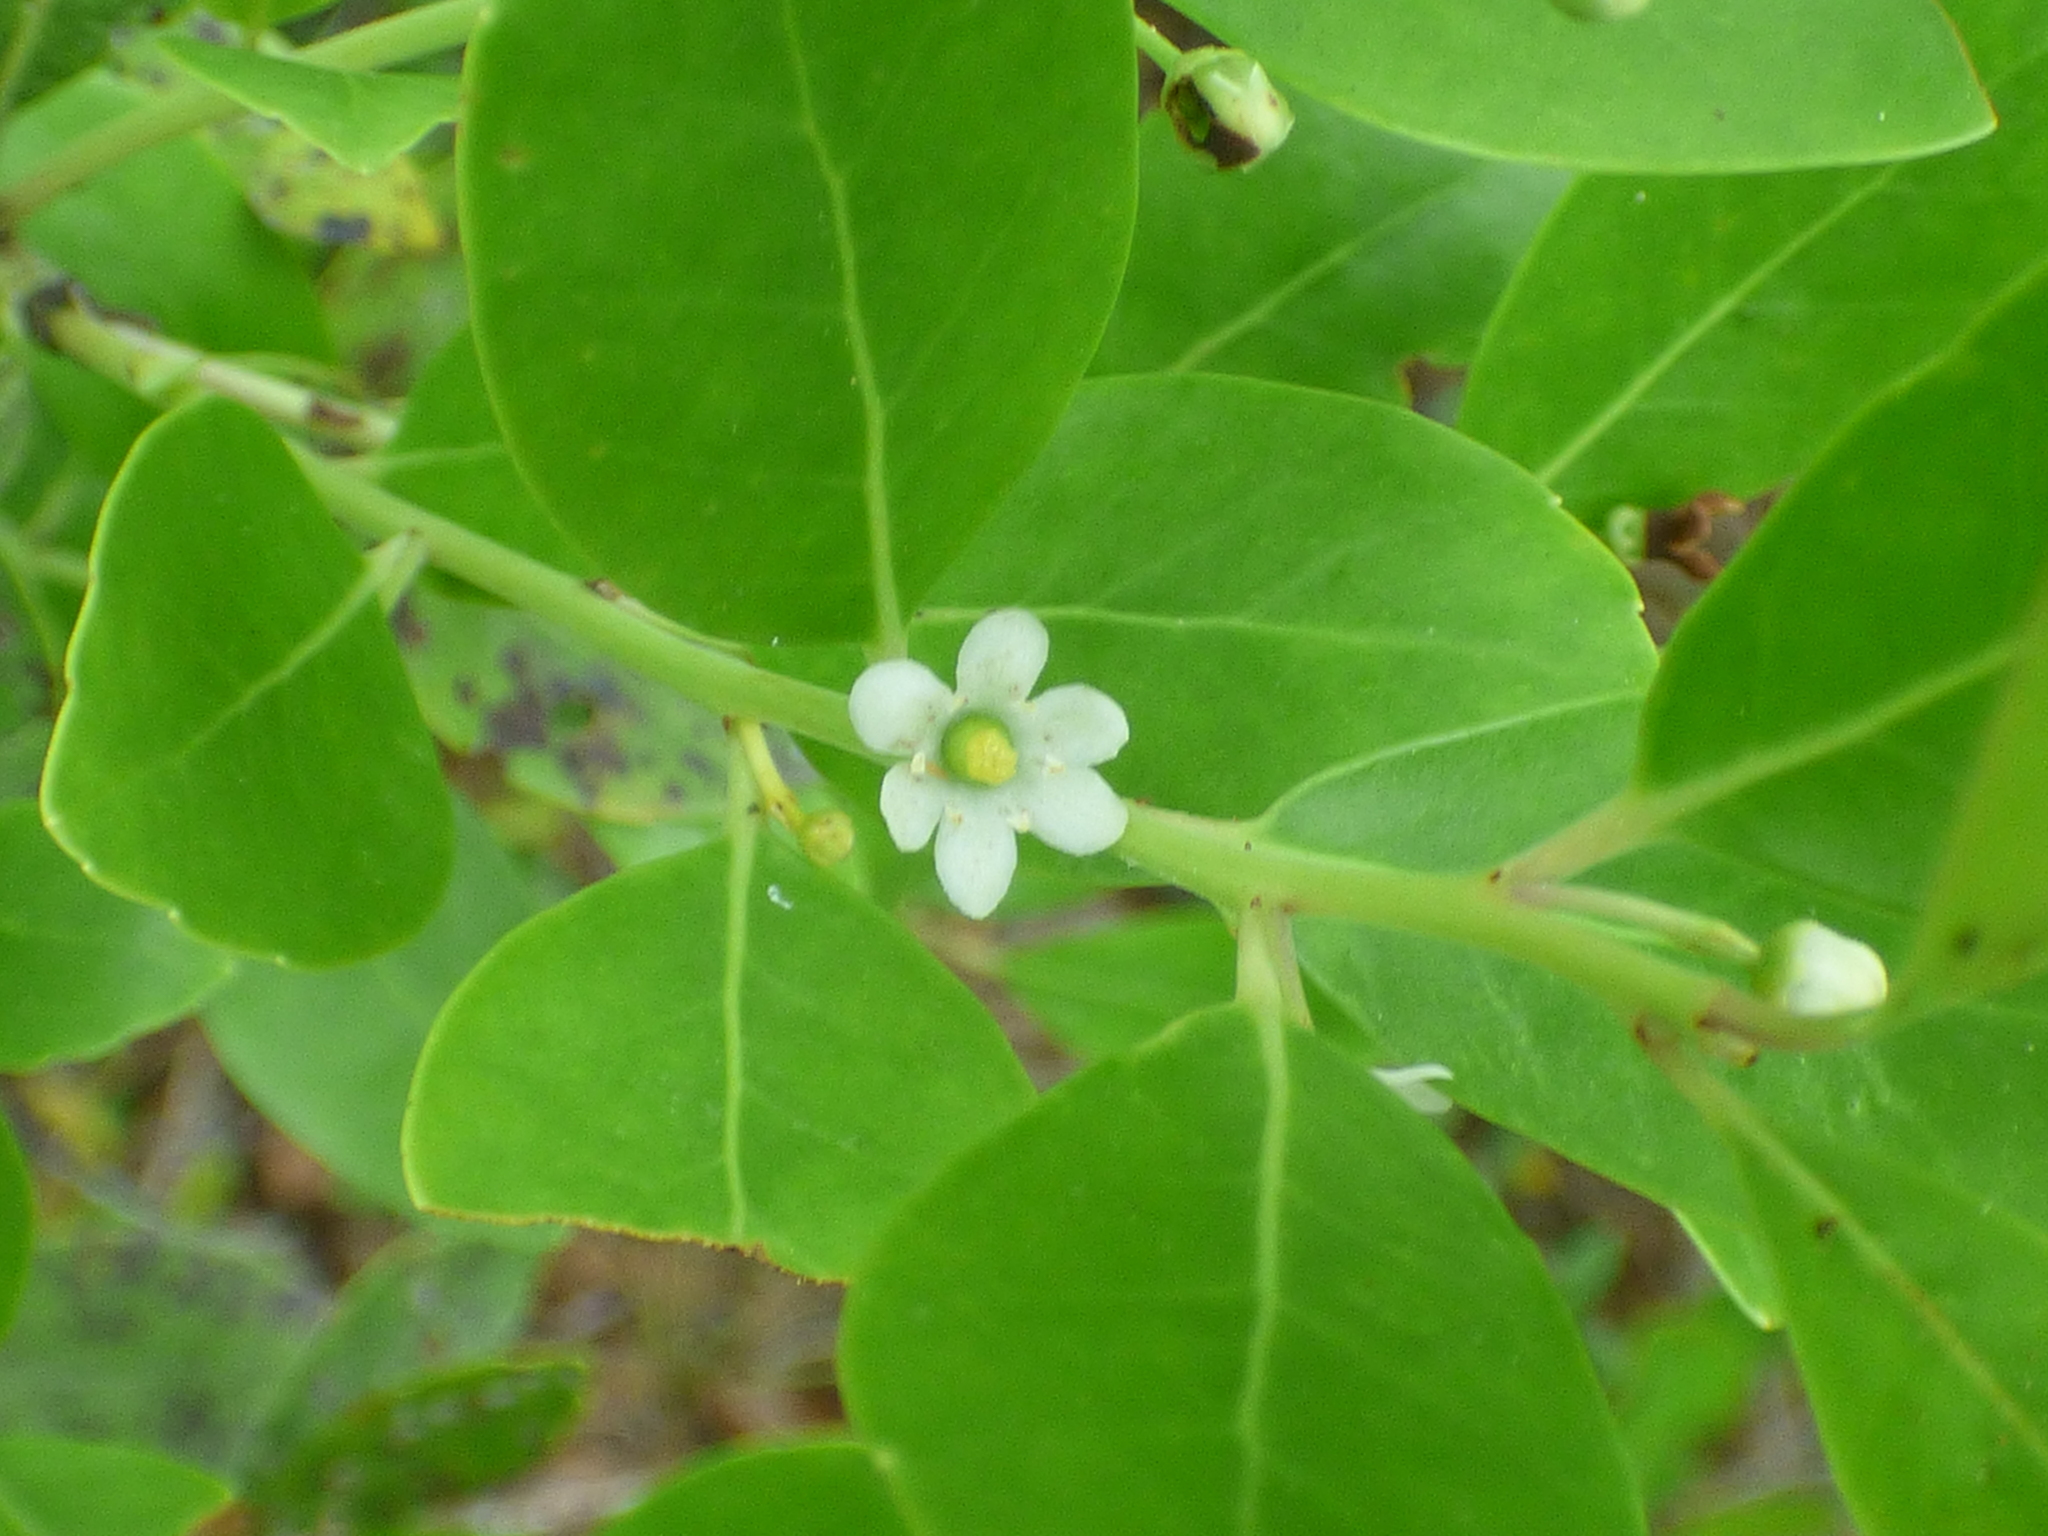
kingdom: Plantae
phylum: Tracheophyta
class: Magnoliopsida
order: Aquifoliales
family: Aquifoliaceae
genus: Ilex
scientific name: Ilex glabra
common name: Bitter gallberry
